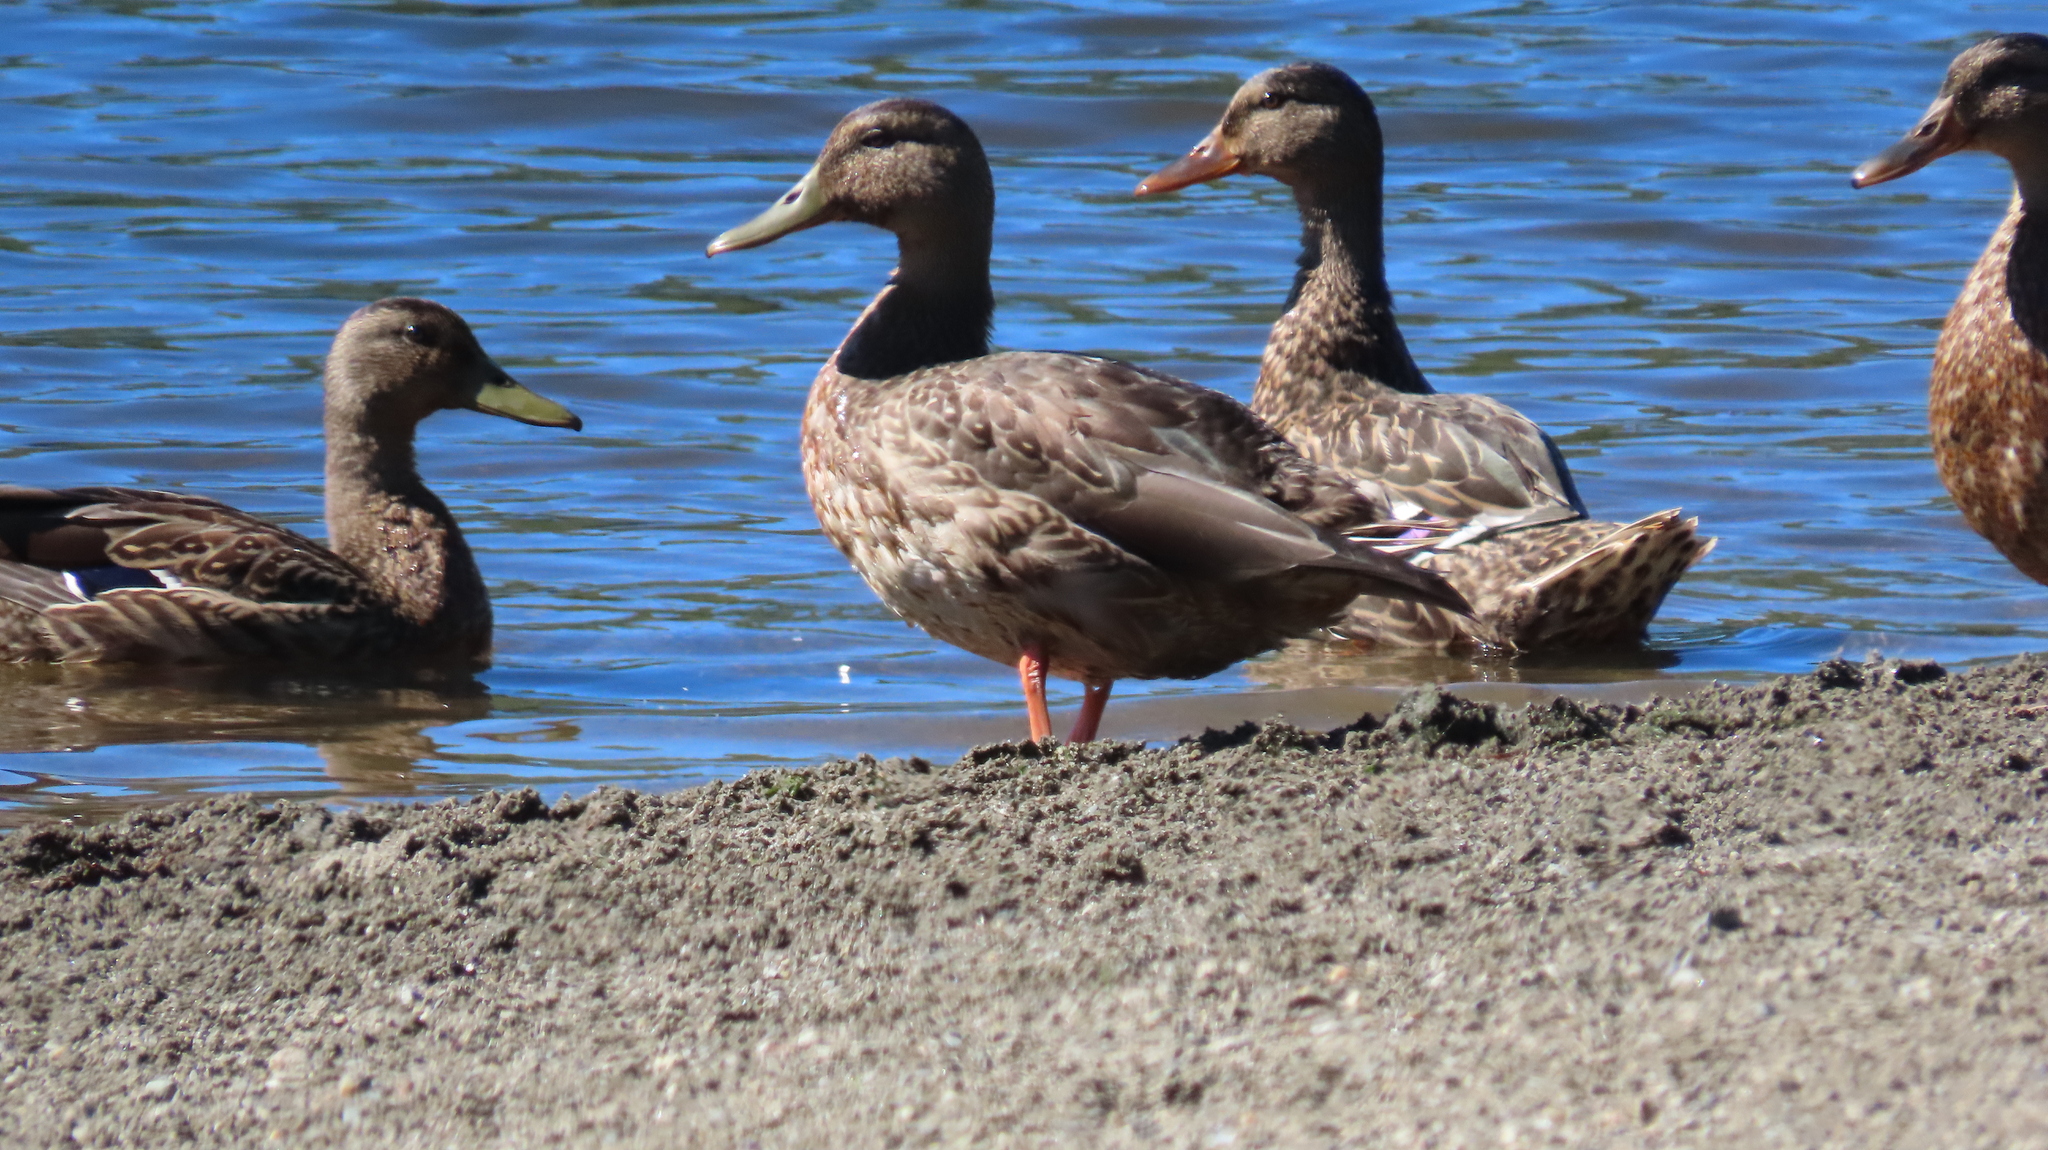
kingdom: Animalia
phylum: Chordata
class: Aves
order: Anseriformes
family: Anatidae
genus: Anas
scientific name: Anas platyrhynchos
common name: Mallard
